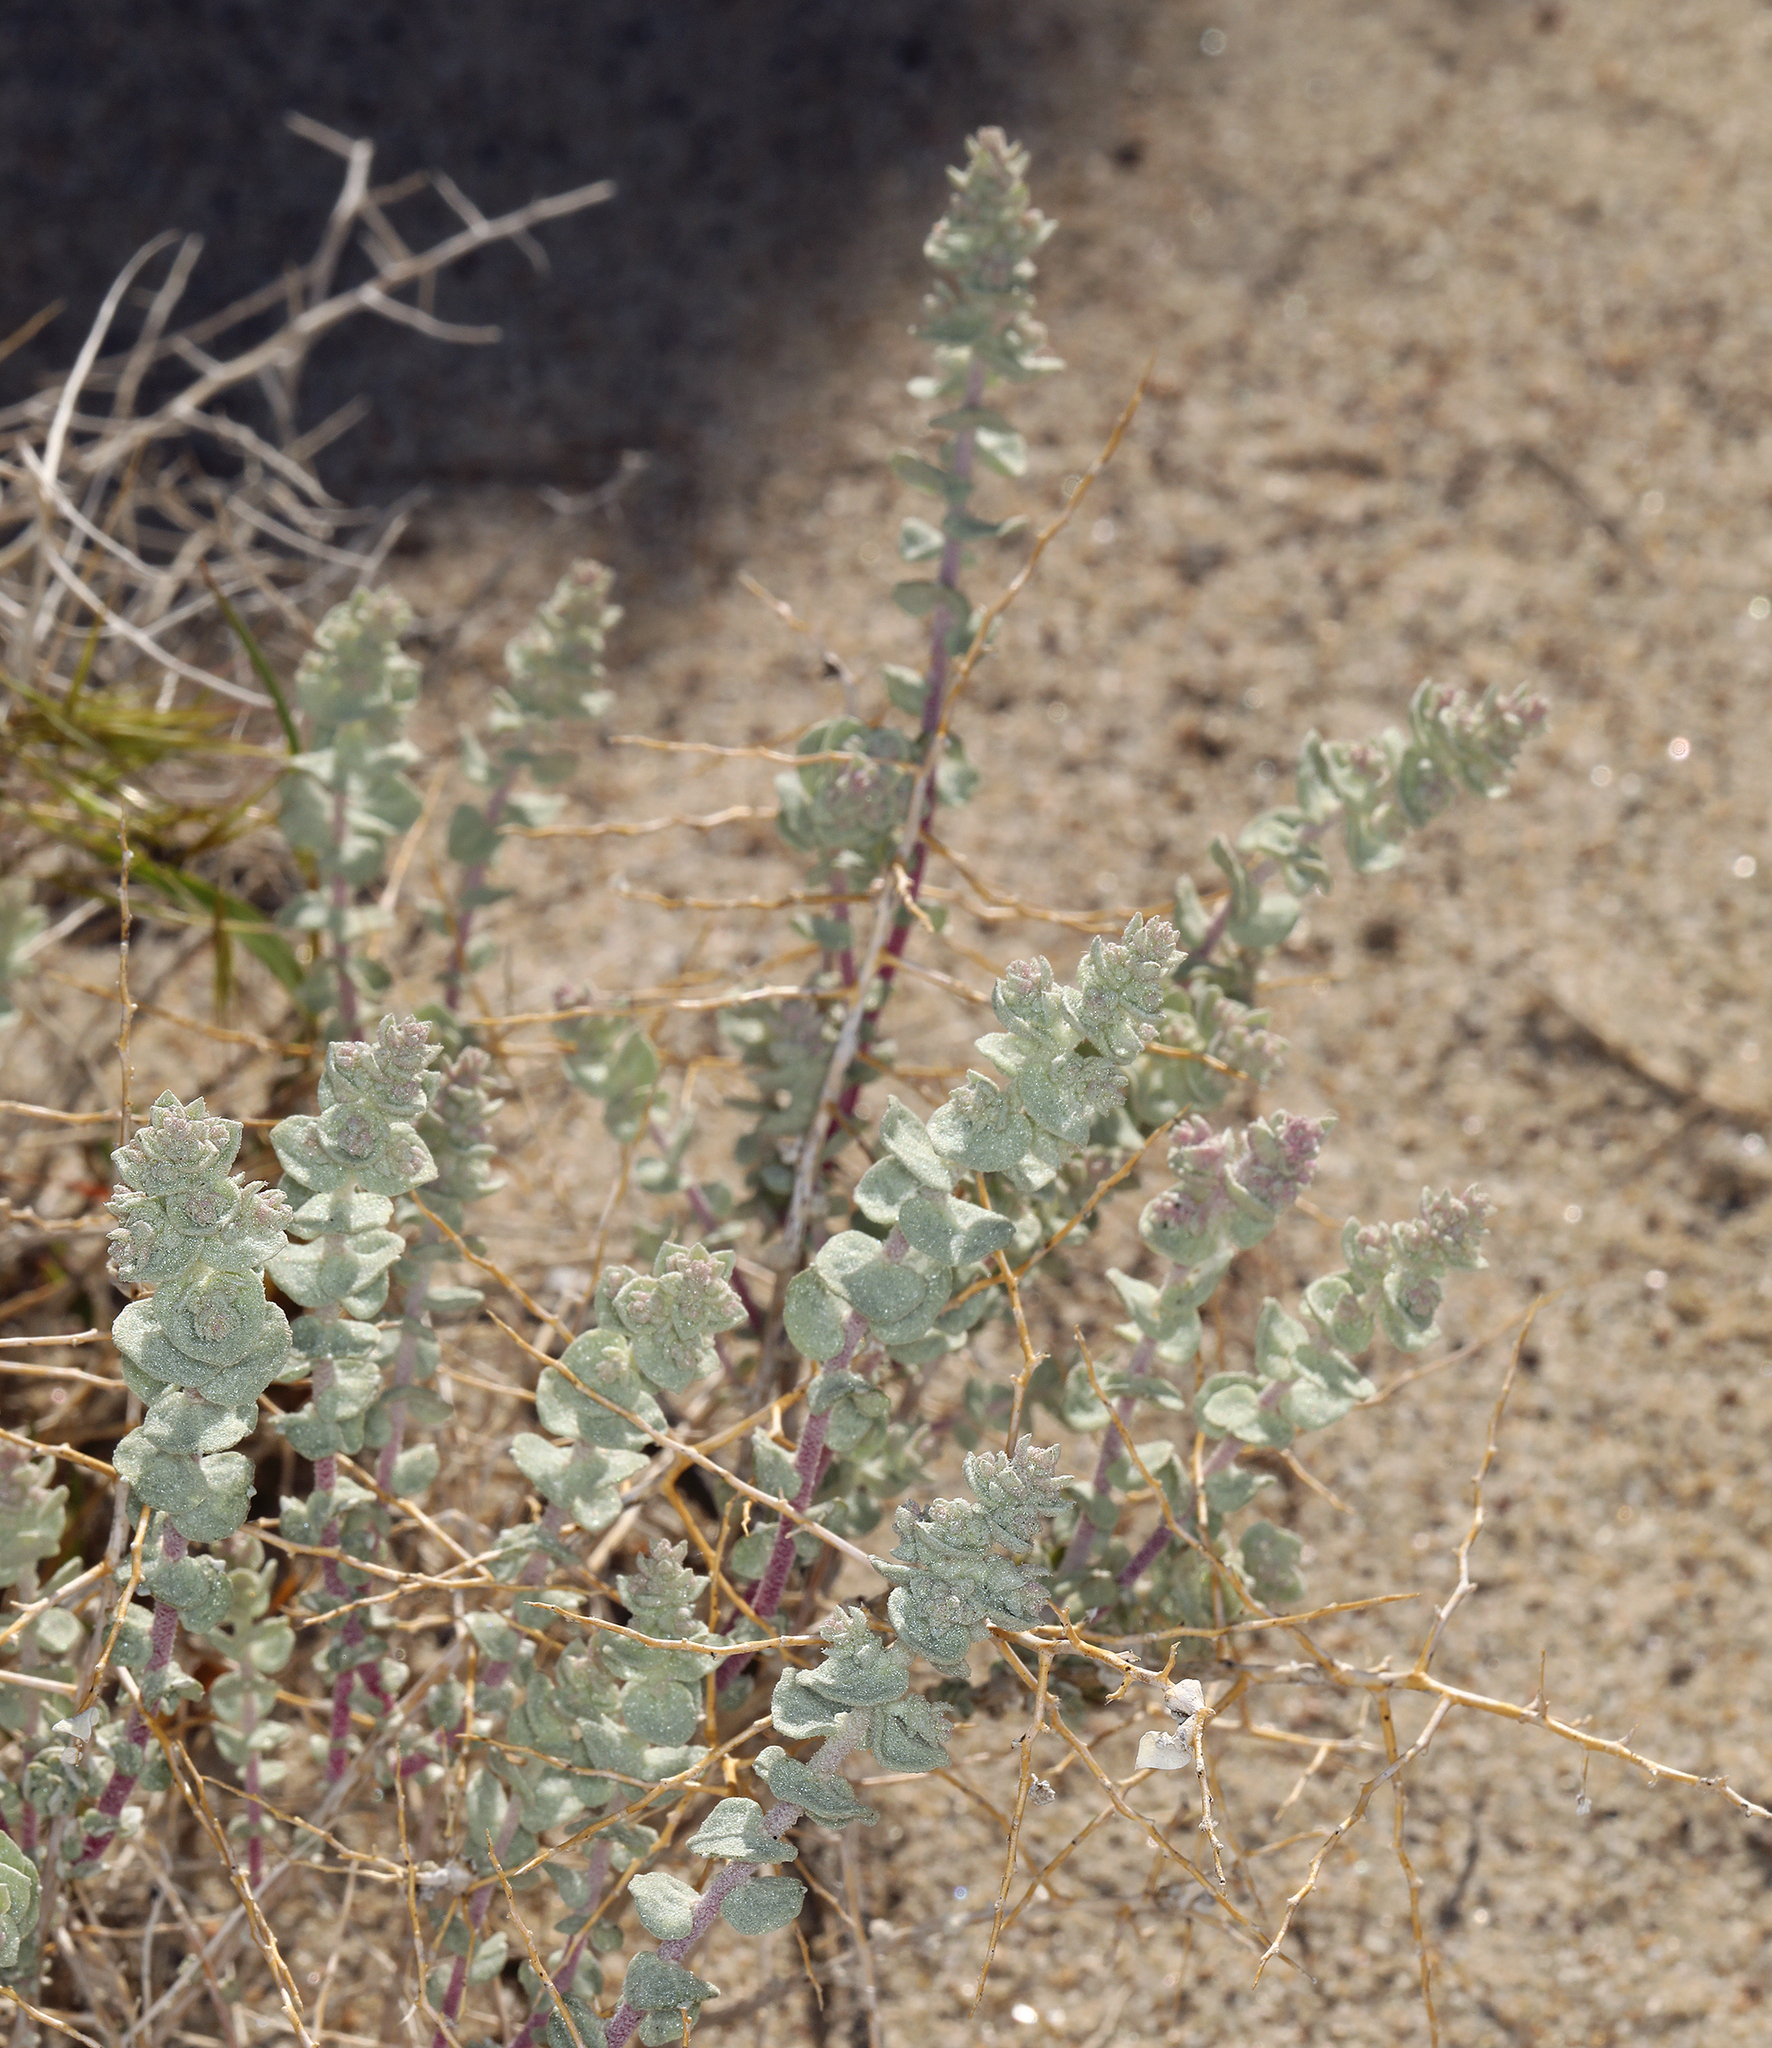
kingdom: Plantae
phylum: Tracheophyta
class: Magnoliopsida
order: Caryophyllales
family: Amaranthaceae
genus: Atriplex
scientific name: Atriplex parryi
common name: Parry's saltbush
